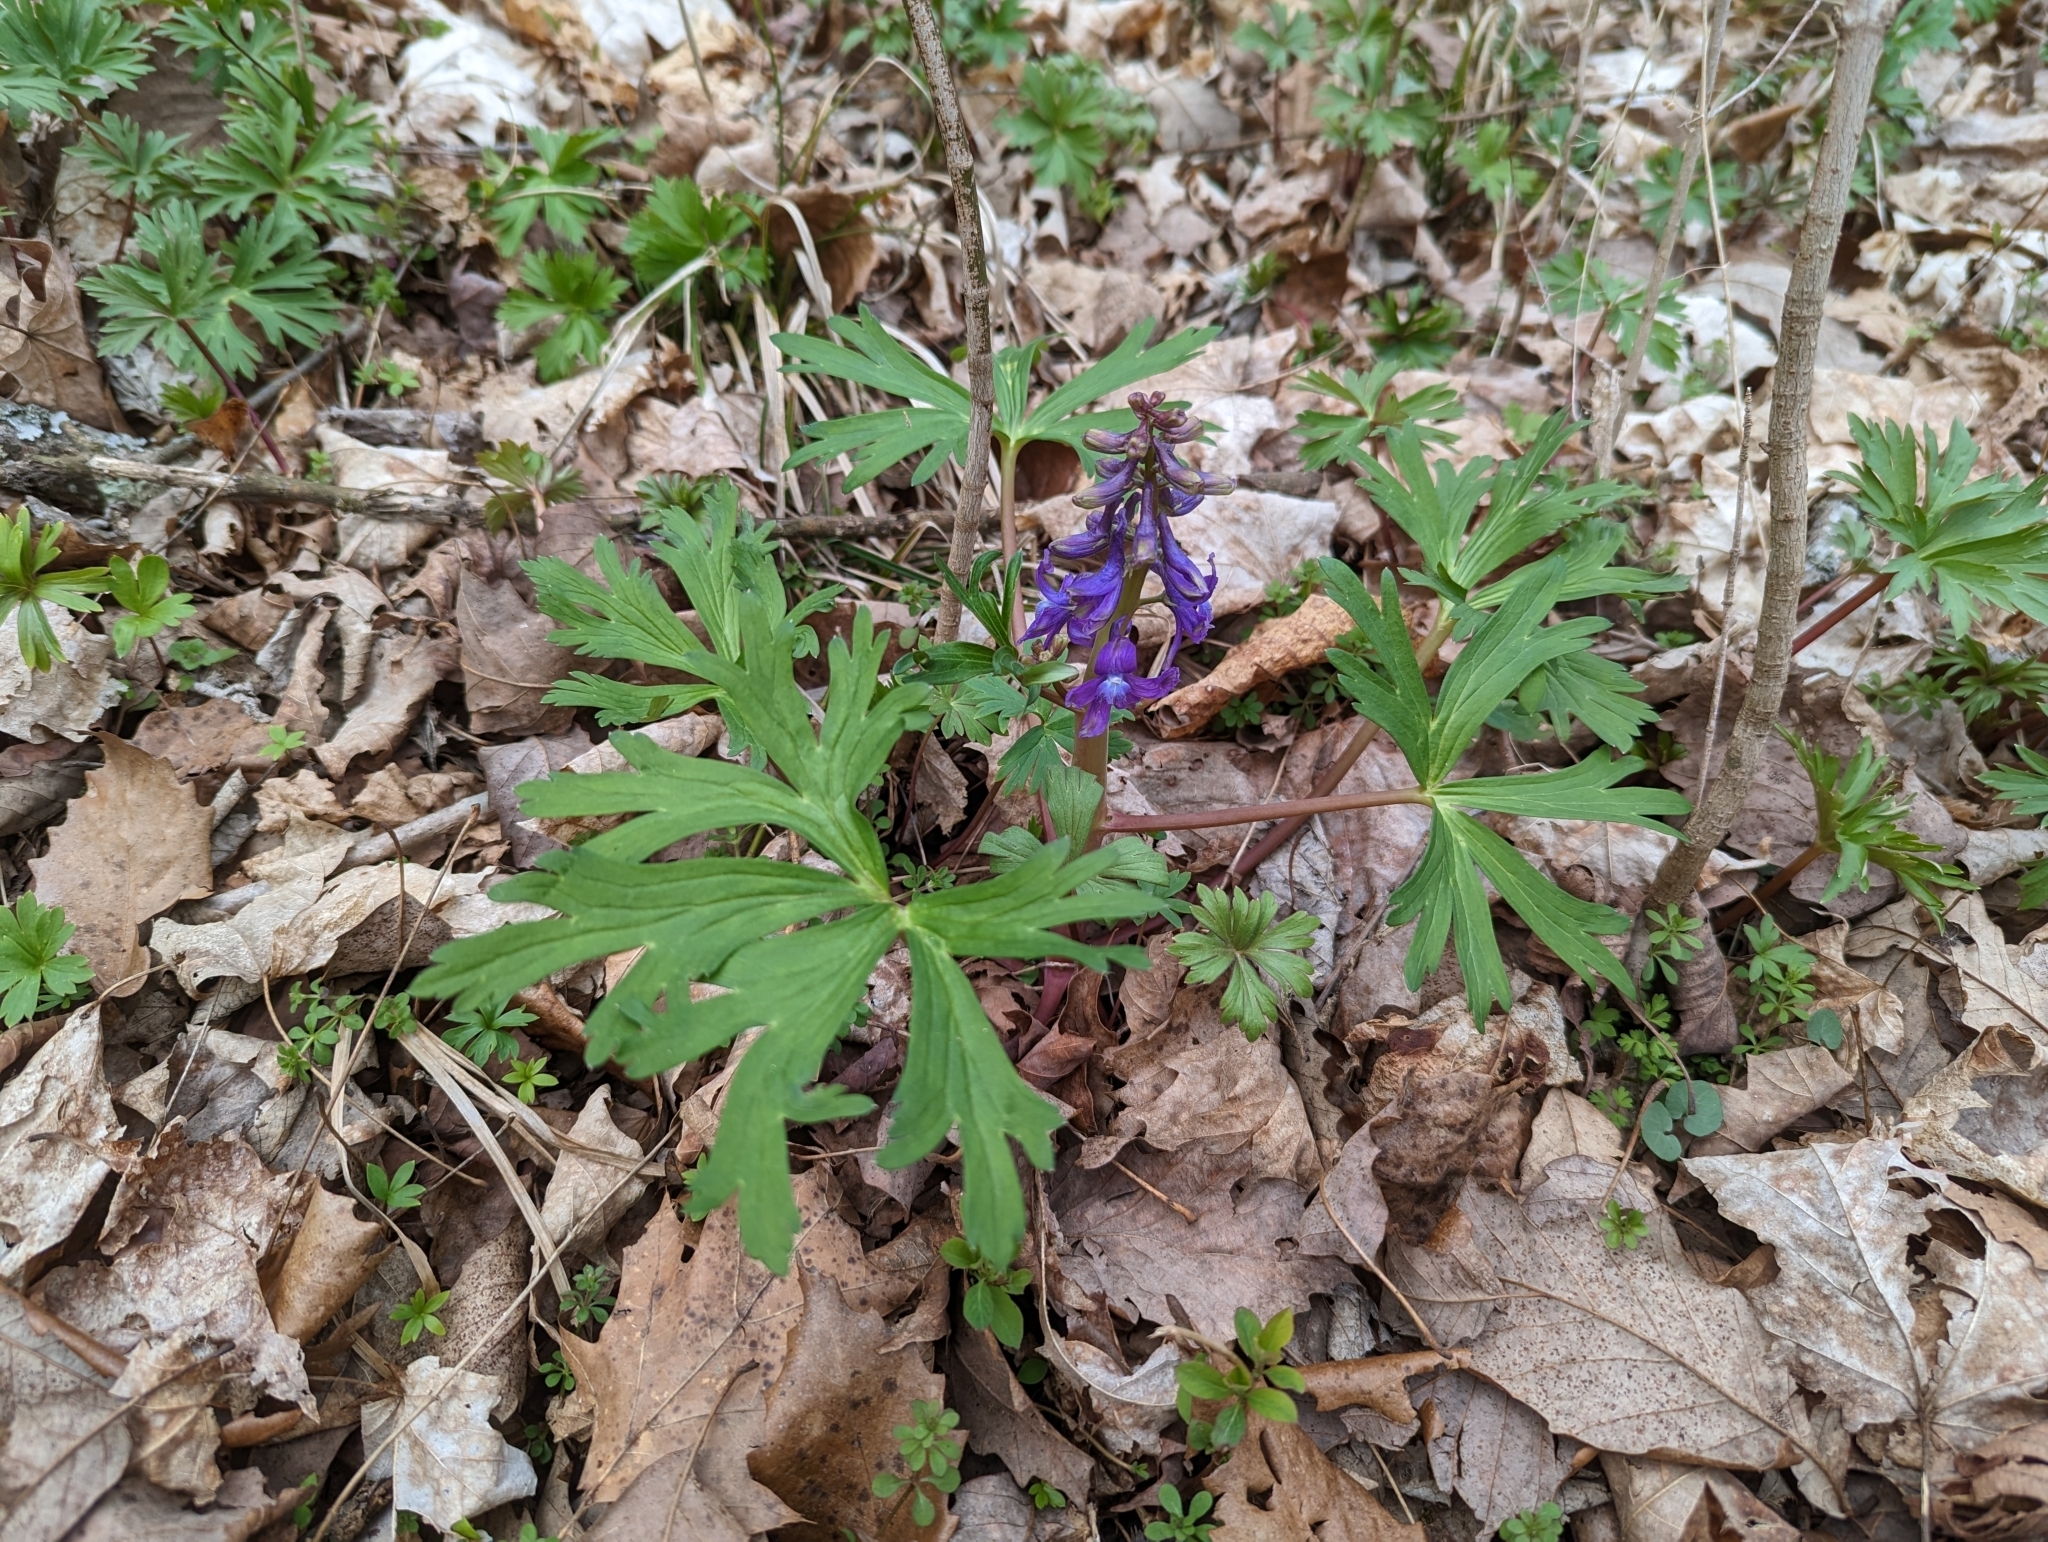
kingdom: Plantae
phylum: Tracheophyta
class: Magnoliopsida
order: Ranunculales
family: Ranunculaceae
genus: Delphinium
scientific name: Delphinium tricorne
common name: Dwarf larkspur
